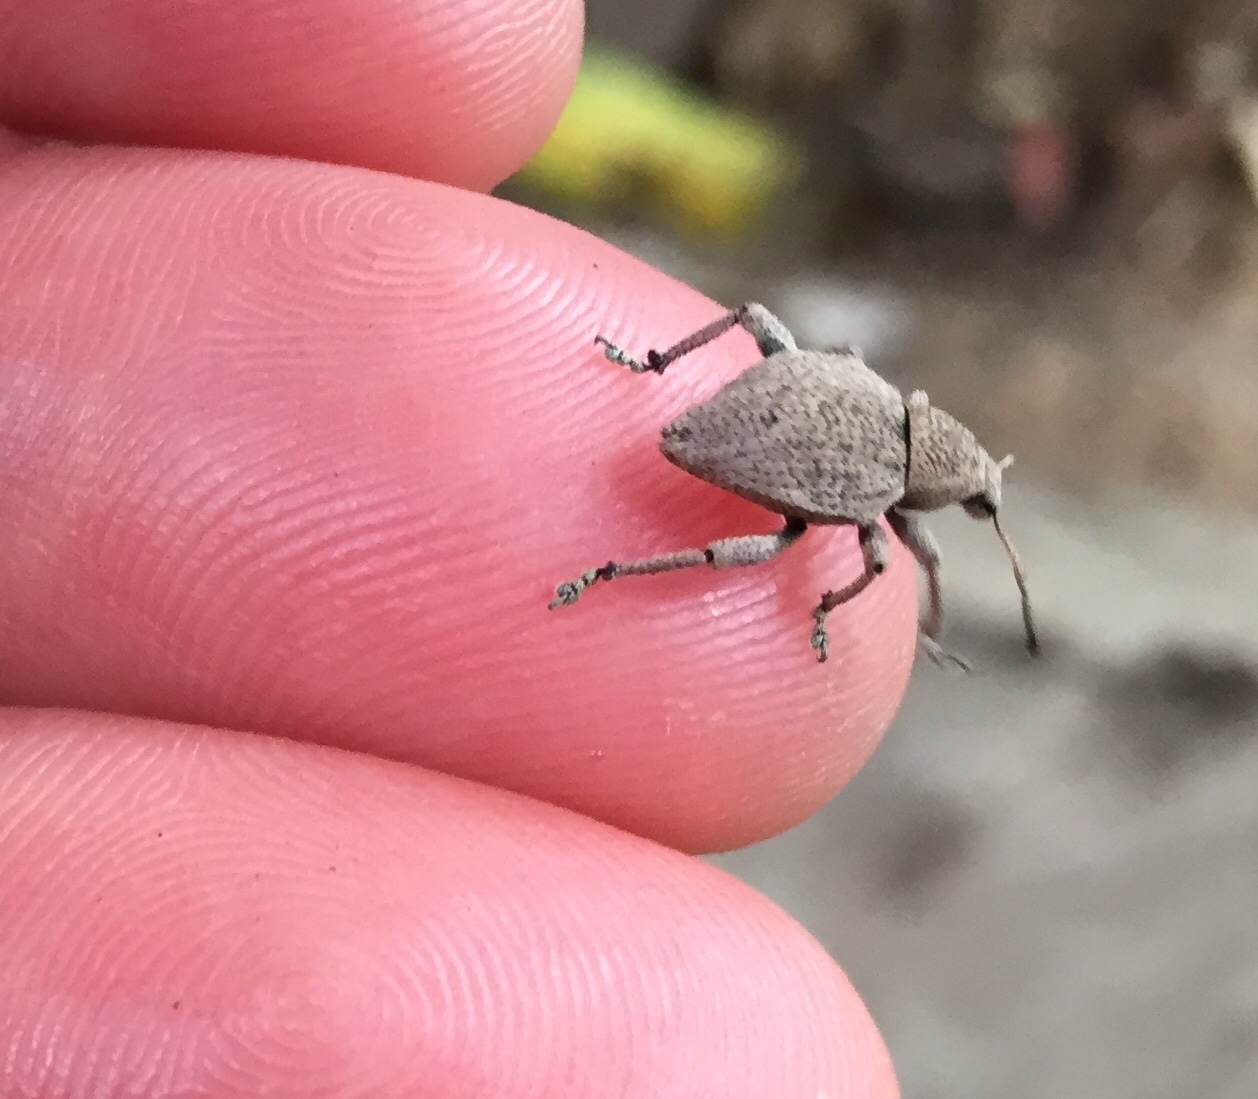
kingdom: Animalia
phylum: Arthropoda
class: Insecta
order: Coleoptera
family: Curculionidae
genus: Elytrurus
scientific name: Elytrurus griseus
